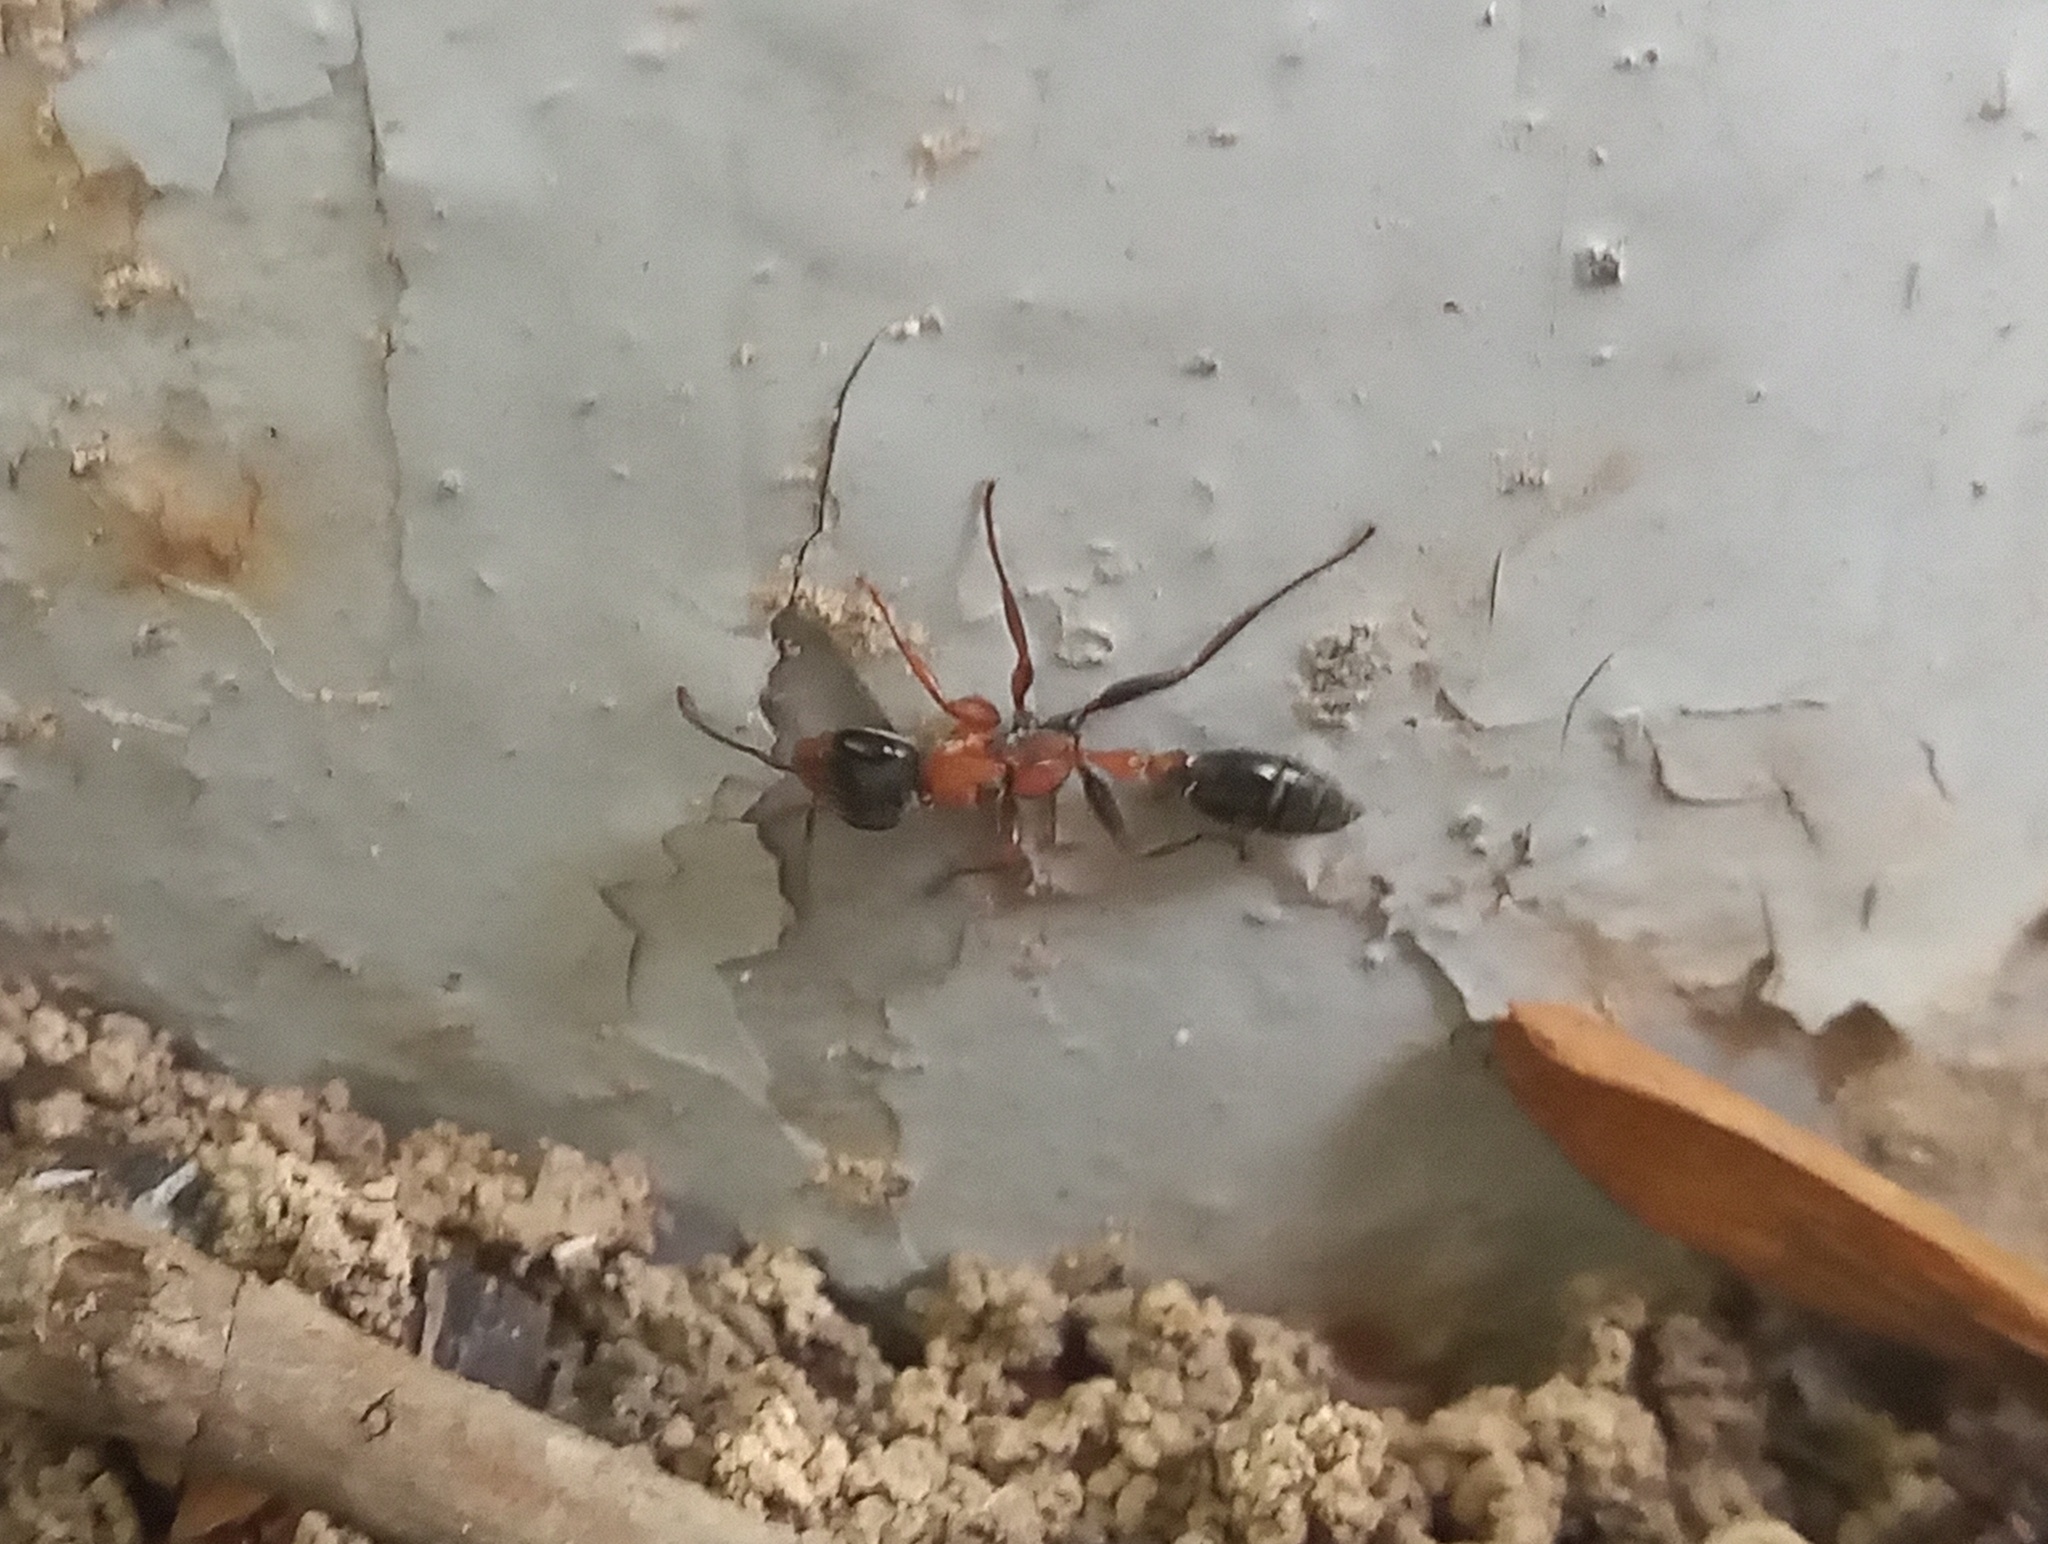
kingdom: Animalia
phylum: Arthropoda
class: Insecta
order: Hymenoptera
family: Formicidae
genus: Pseudomyrmex
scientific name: Pseudomyrmex gracilis
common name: Graceful twig ant
